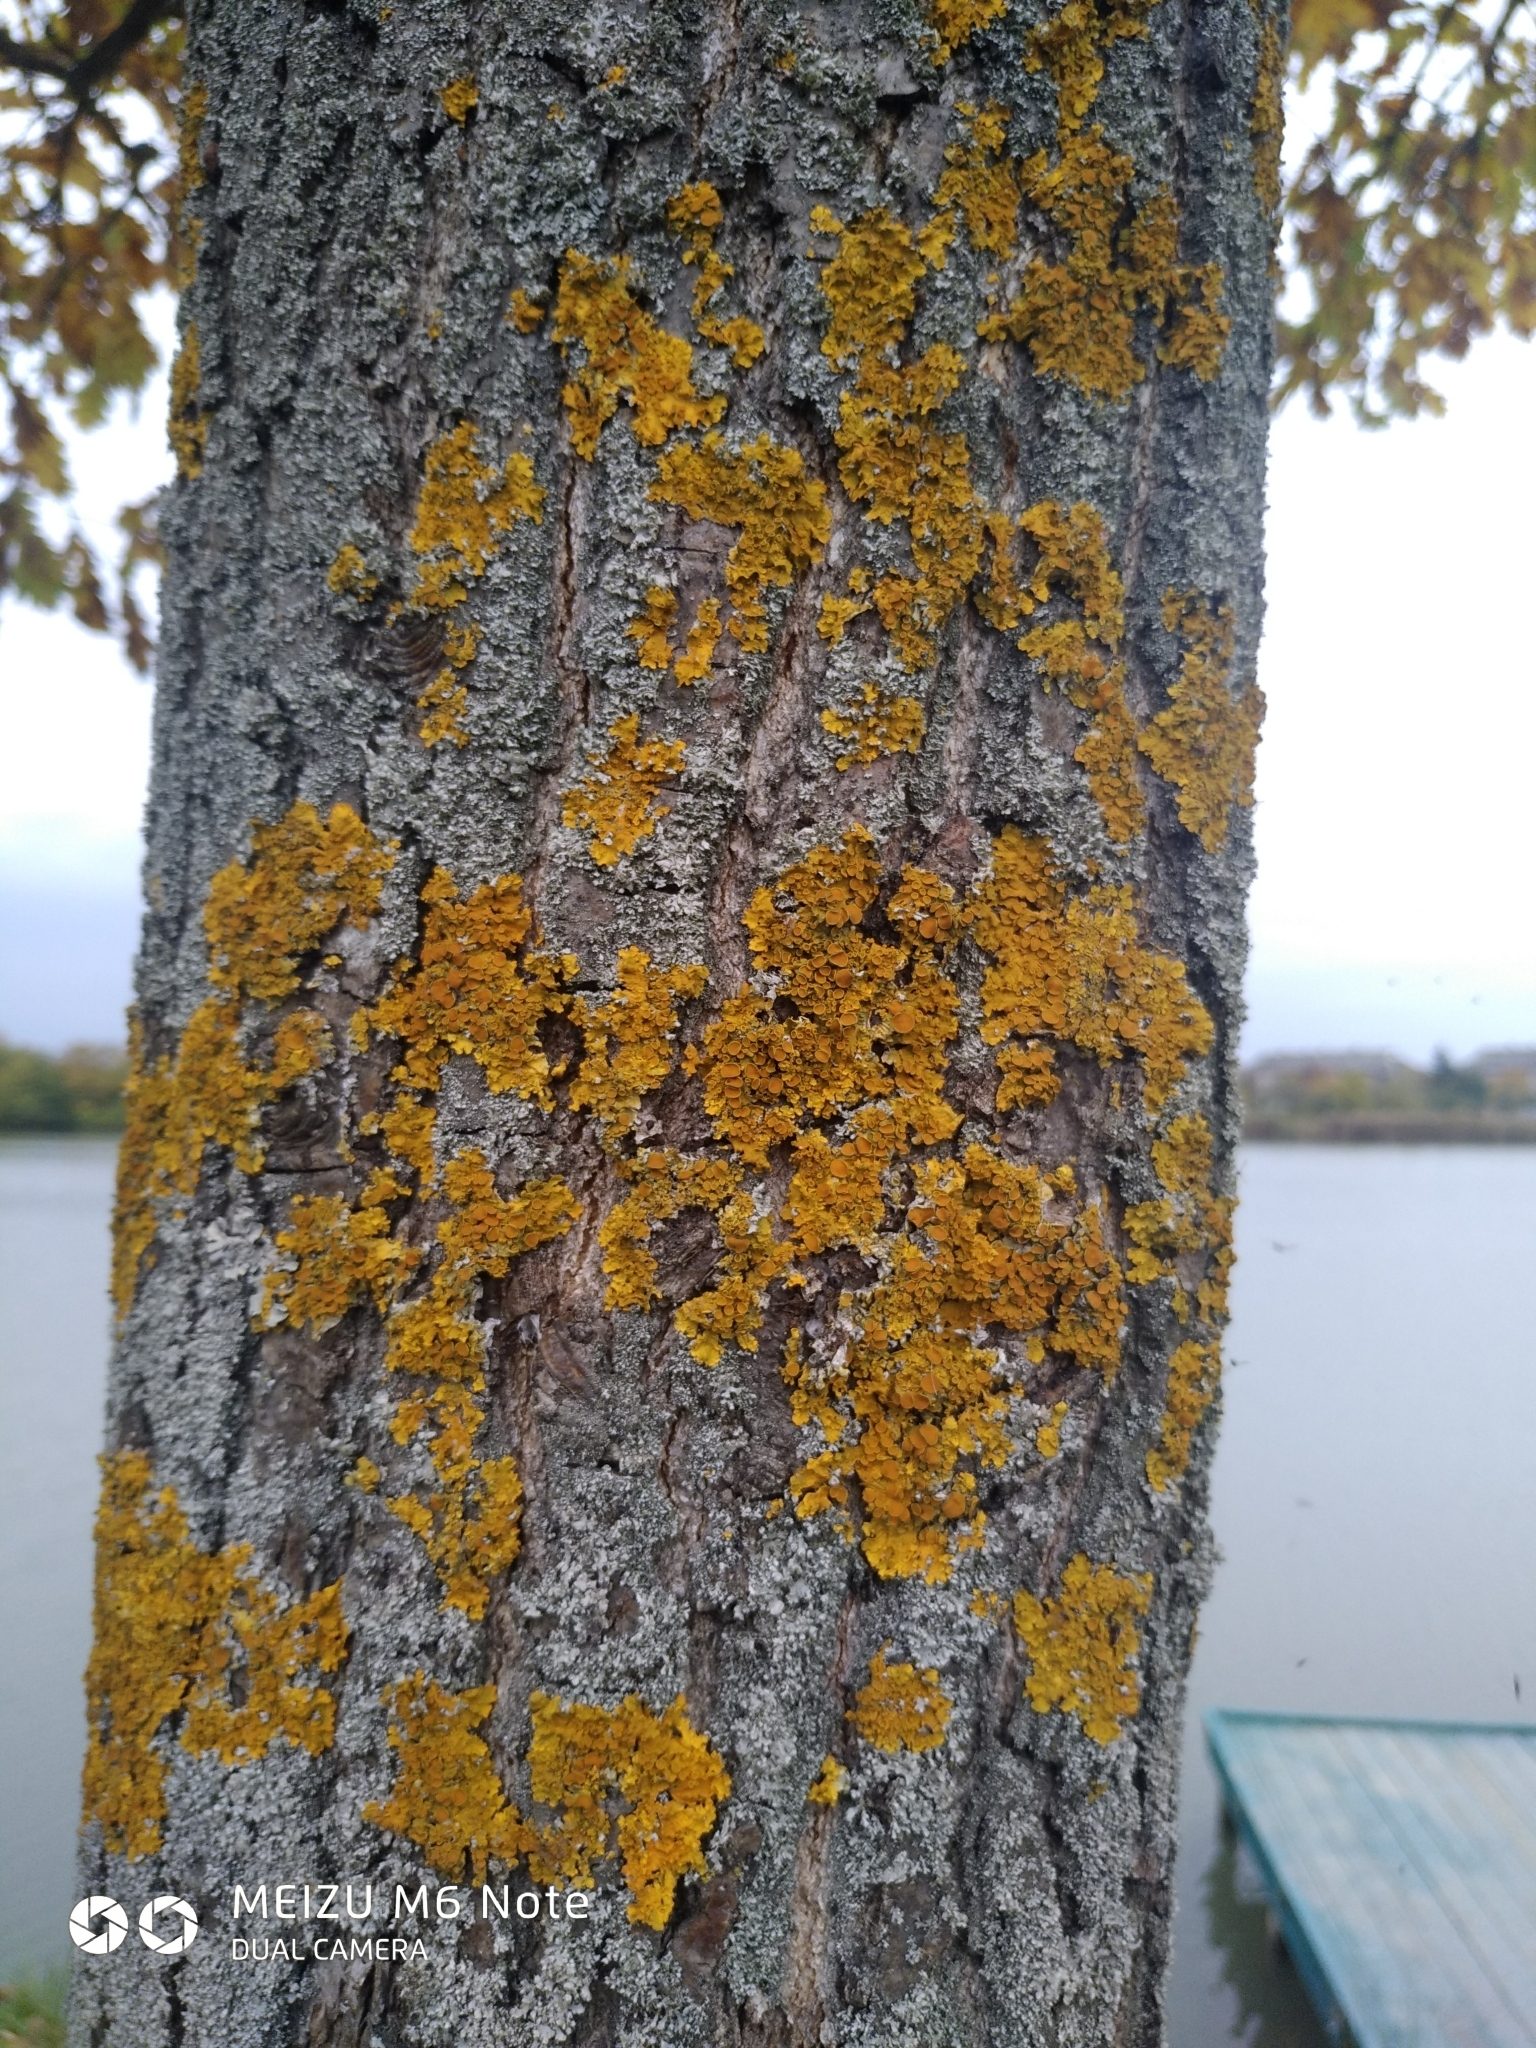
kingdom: Fungi
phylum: Ascomycota
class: Lecanoromycetes
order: Teloschistales
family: Teloschistaceae
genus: Xanthoria
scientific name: Xanthoria parietina
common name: Common orange lichen
